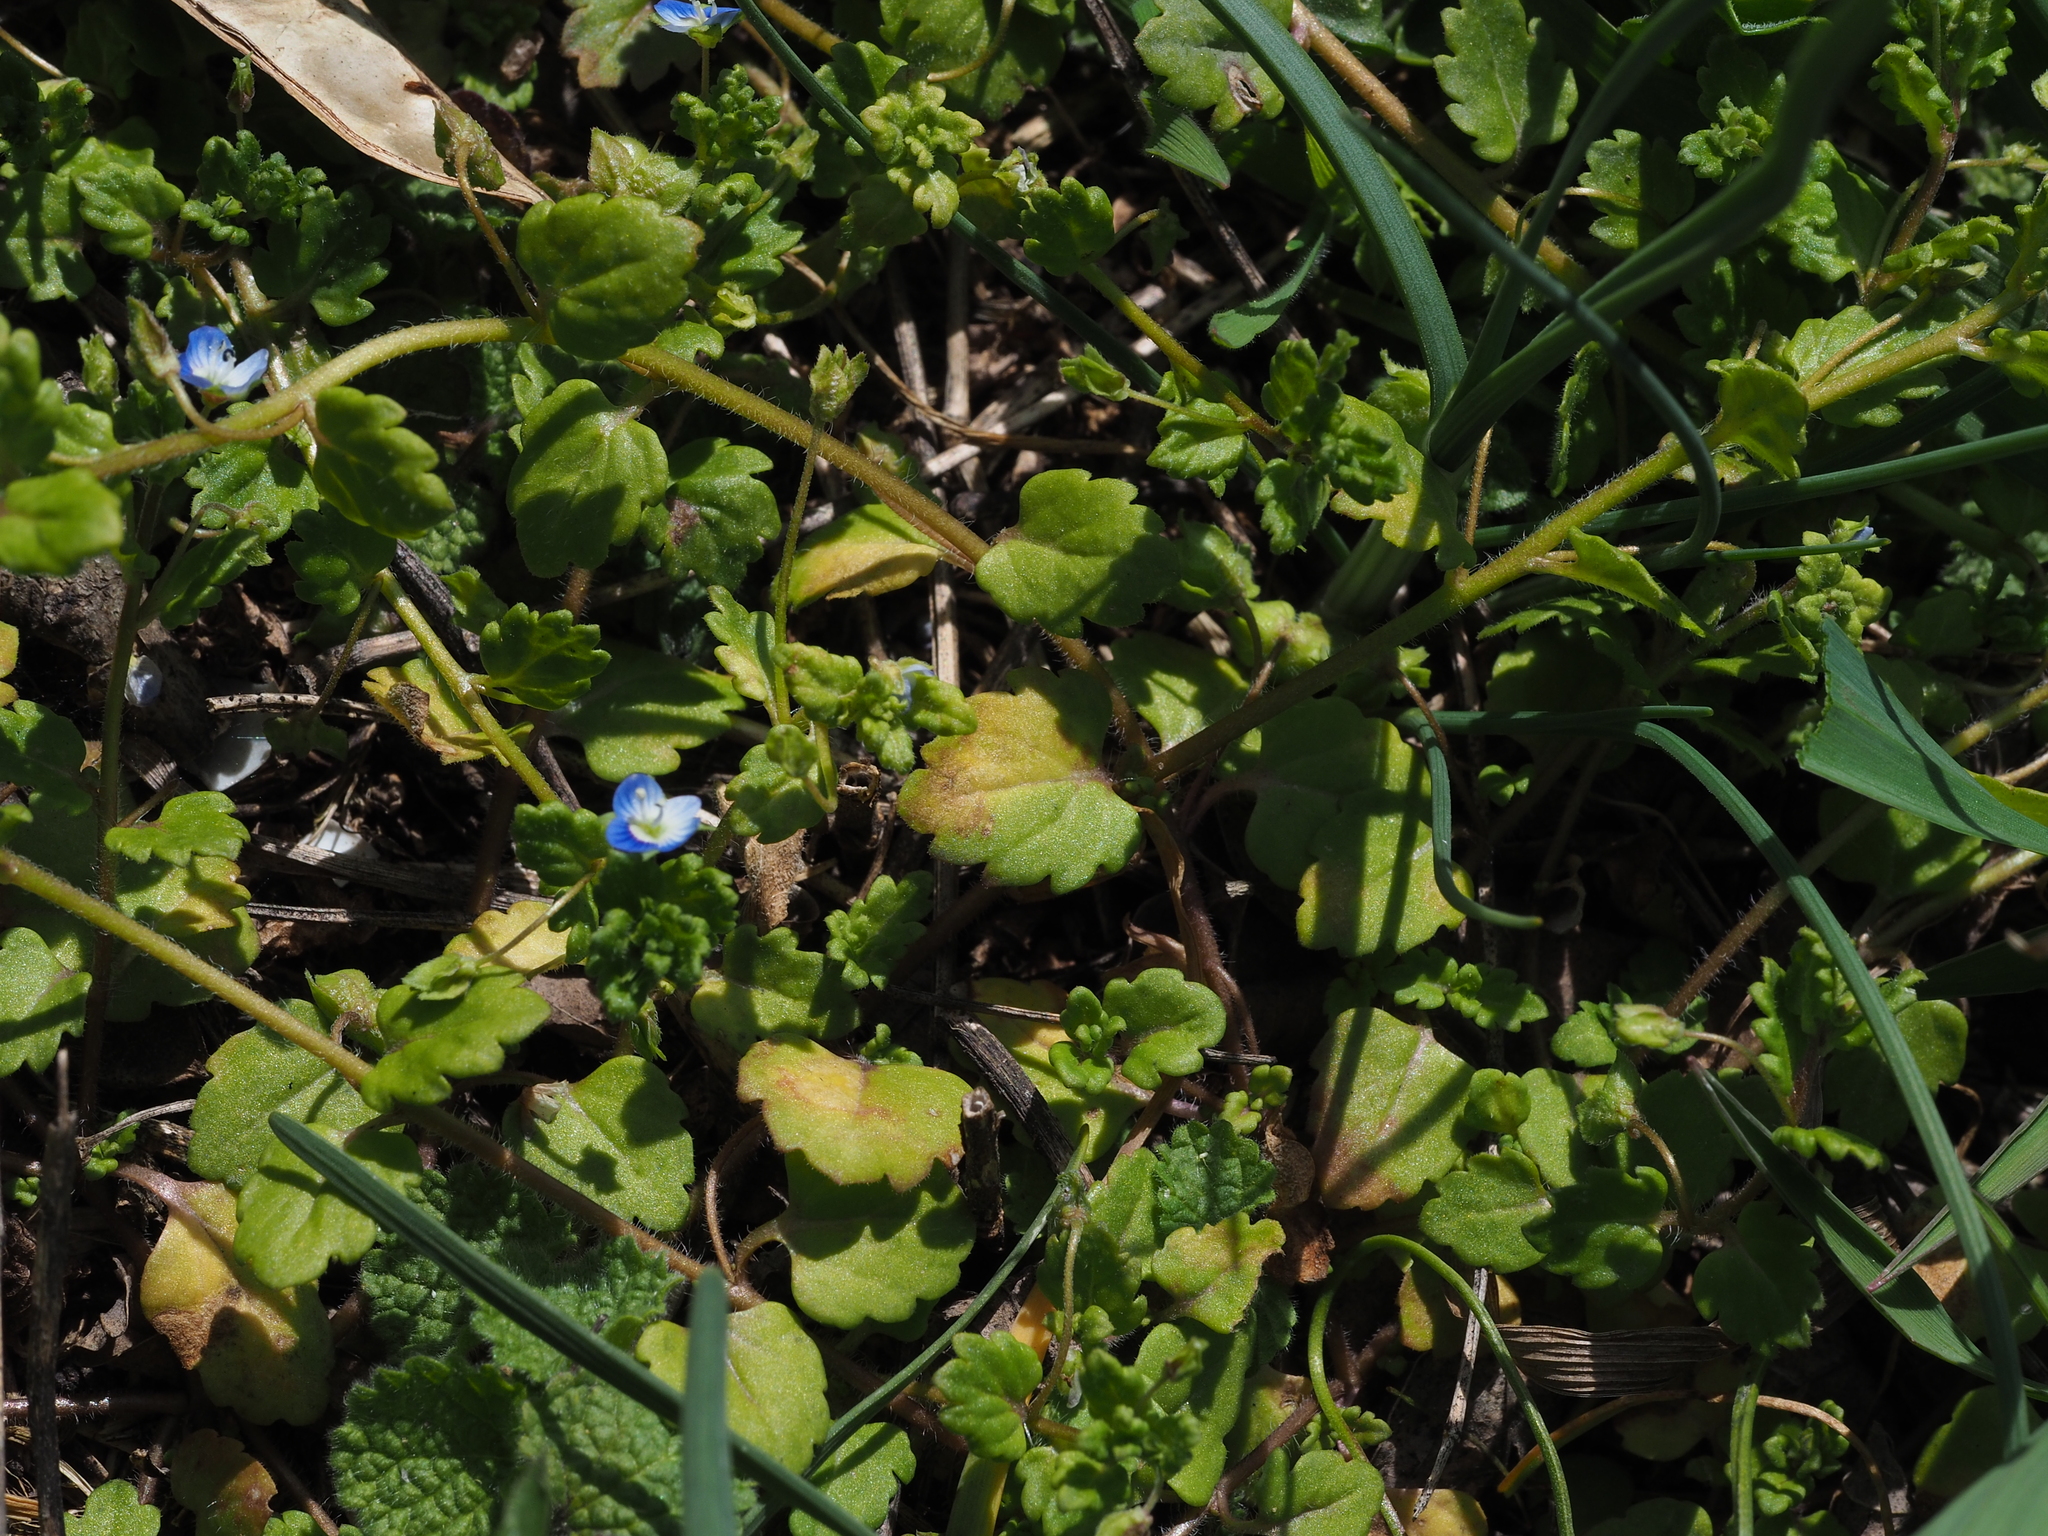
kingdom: Fungi
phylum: Ascomycota
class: Dothideomycetes
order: Mycosphaerellales
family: Mycosphaerellaceae
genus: Ramularia
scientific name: Ramularia veronicae
